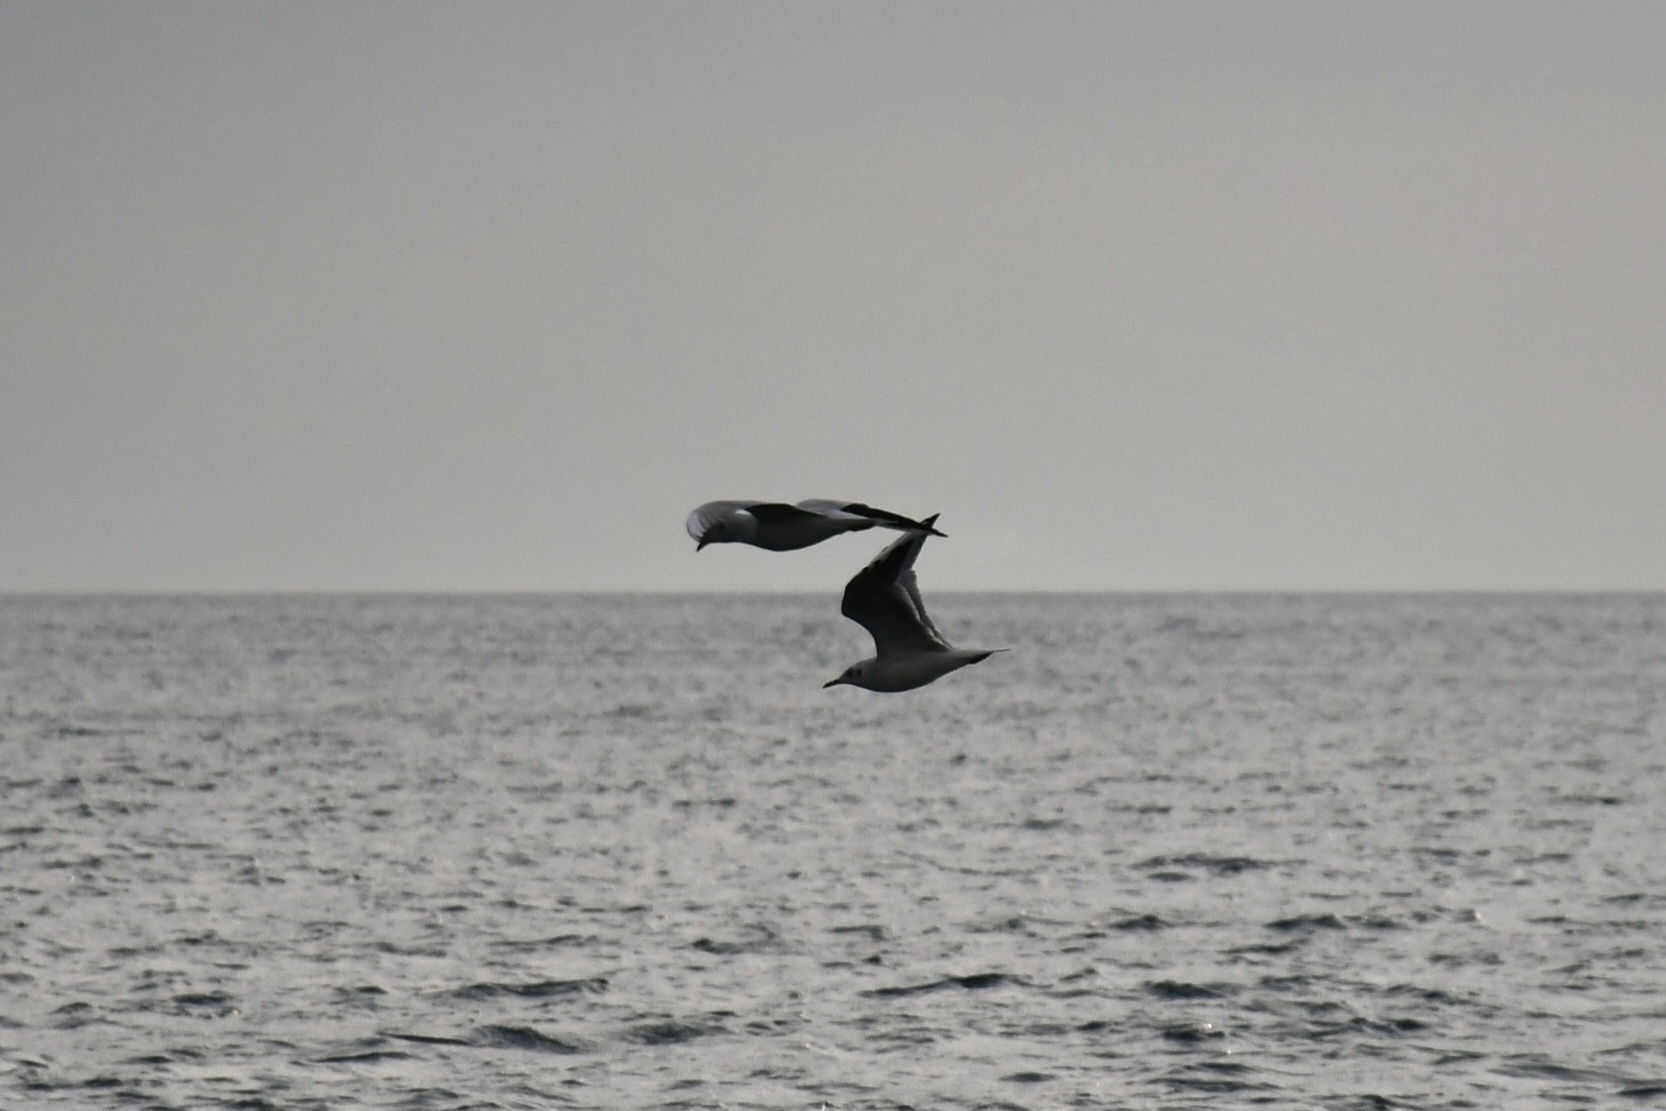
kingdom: Animalia
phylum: Chordata
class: Aves
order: Charadriiformes
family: Laridae
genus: Chroicocephalus
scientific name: Chroicocephalus ridibundus
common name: Black-headed gull
